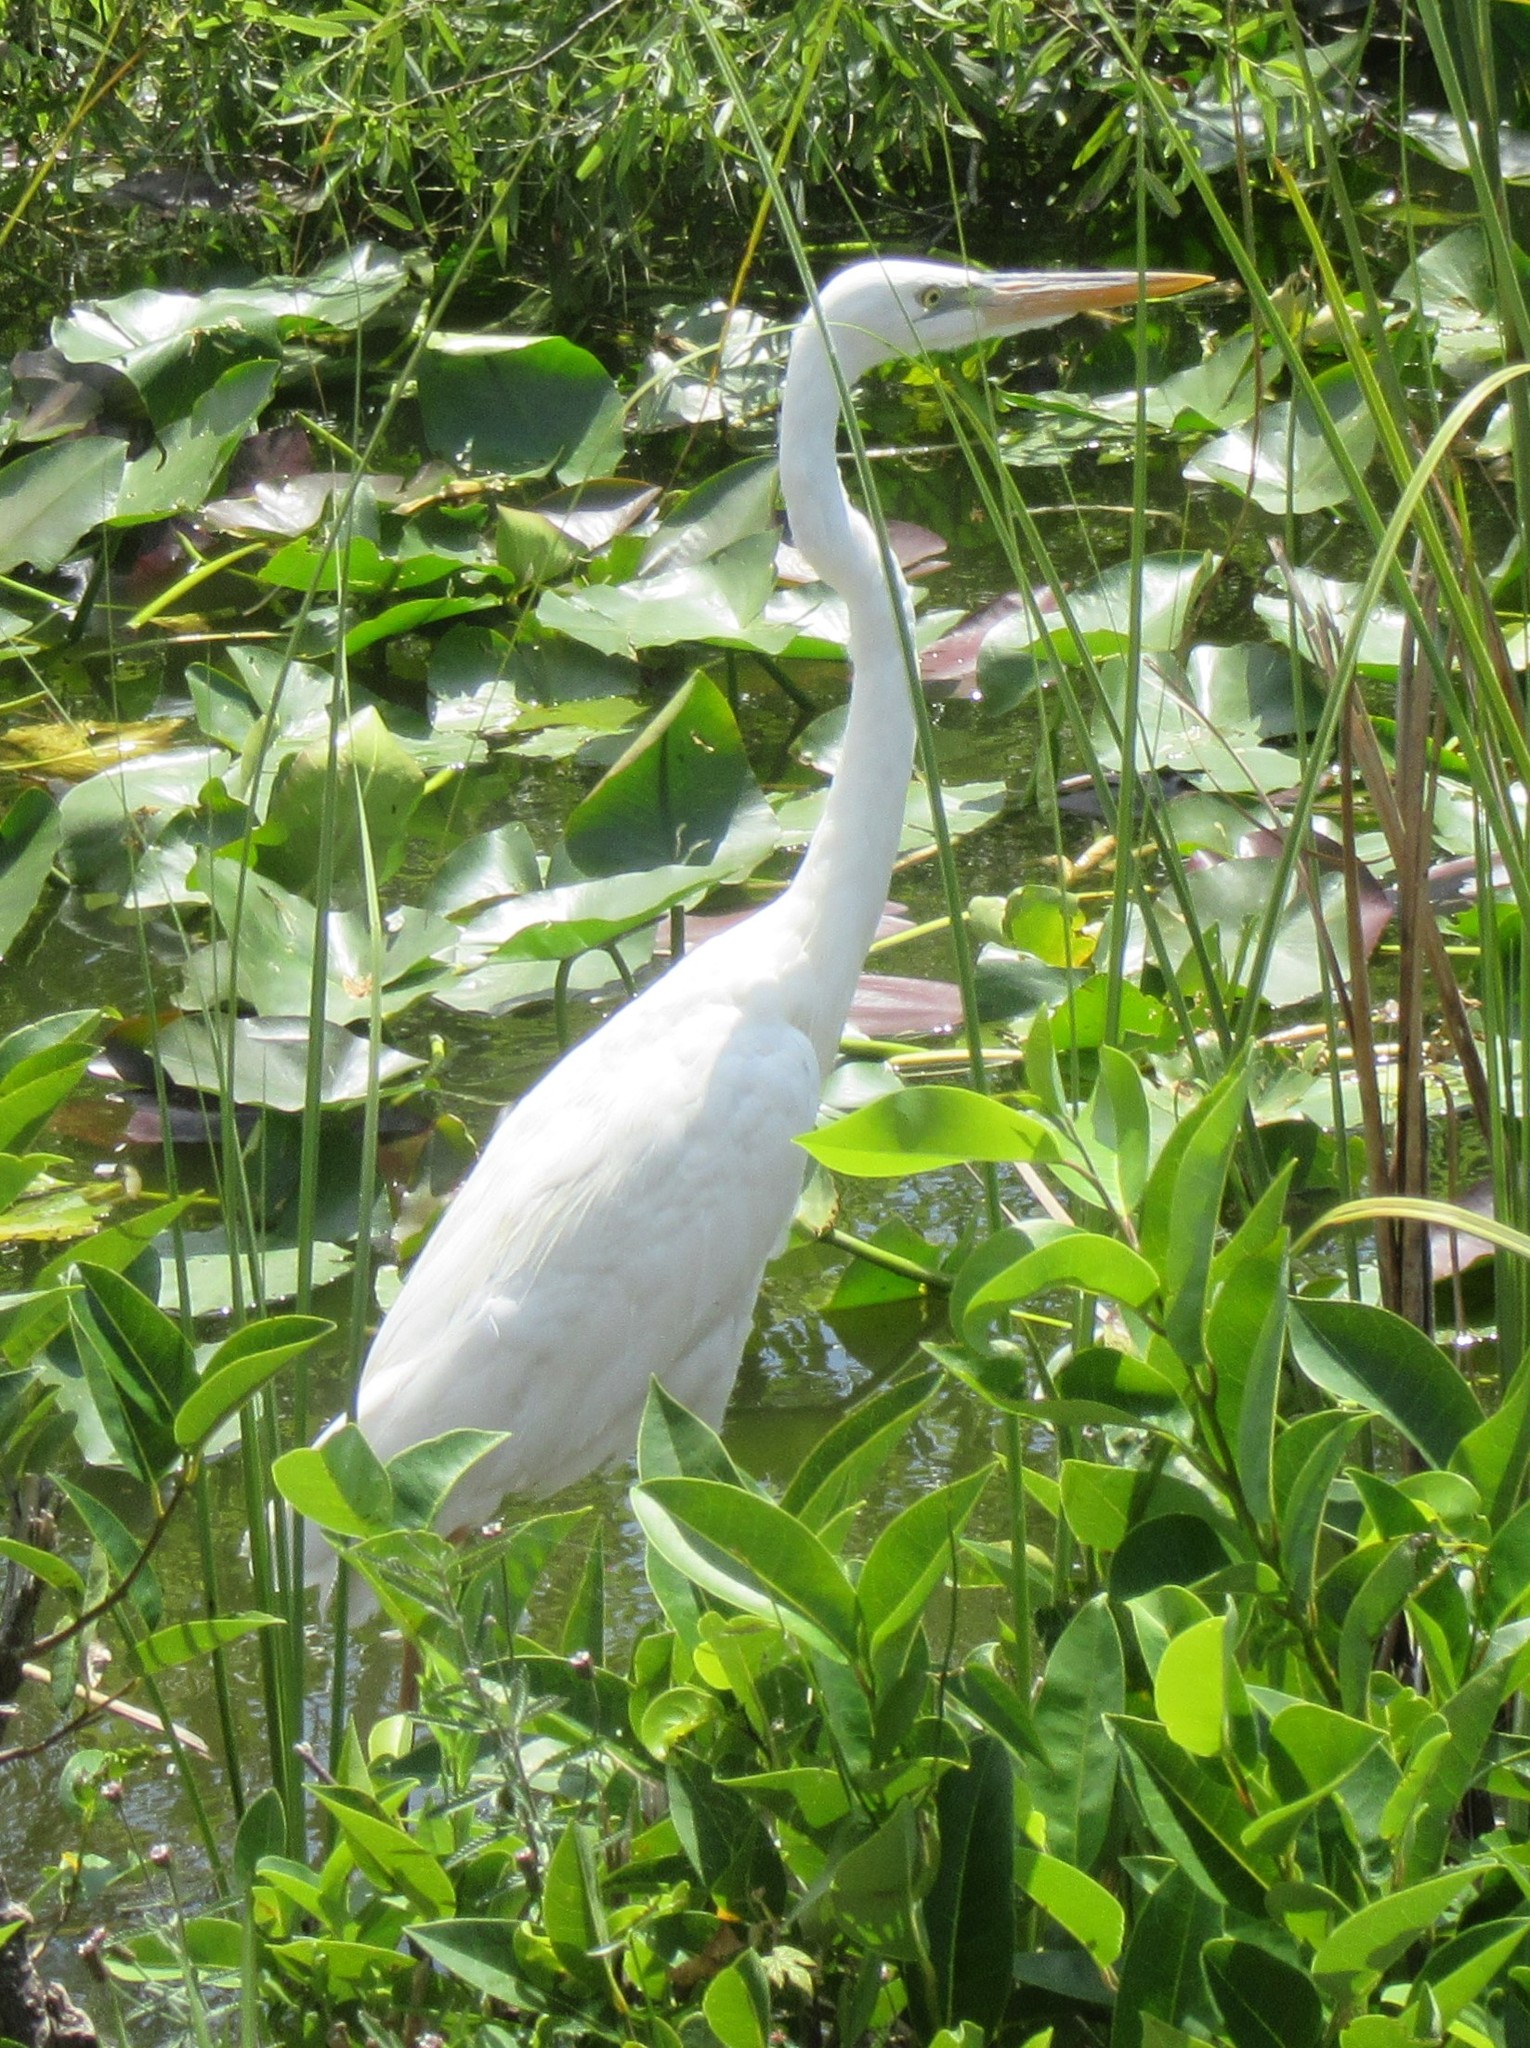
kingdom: Animalia
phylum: Chordata
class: Aves
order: Pelecaniformes
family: Ardeidae
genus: Ardea
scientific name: Ardea herodias
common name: Great blue heron
